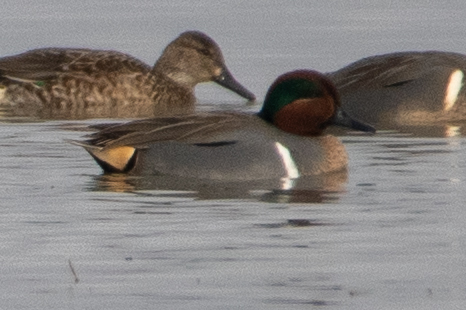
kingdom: Animalia
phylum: Chordata
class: Aves
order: Anseriformes
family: Anatidae
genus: Anas
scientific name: Anas crecca
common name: Eurasian teal
